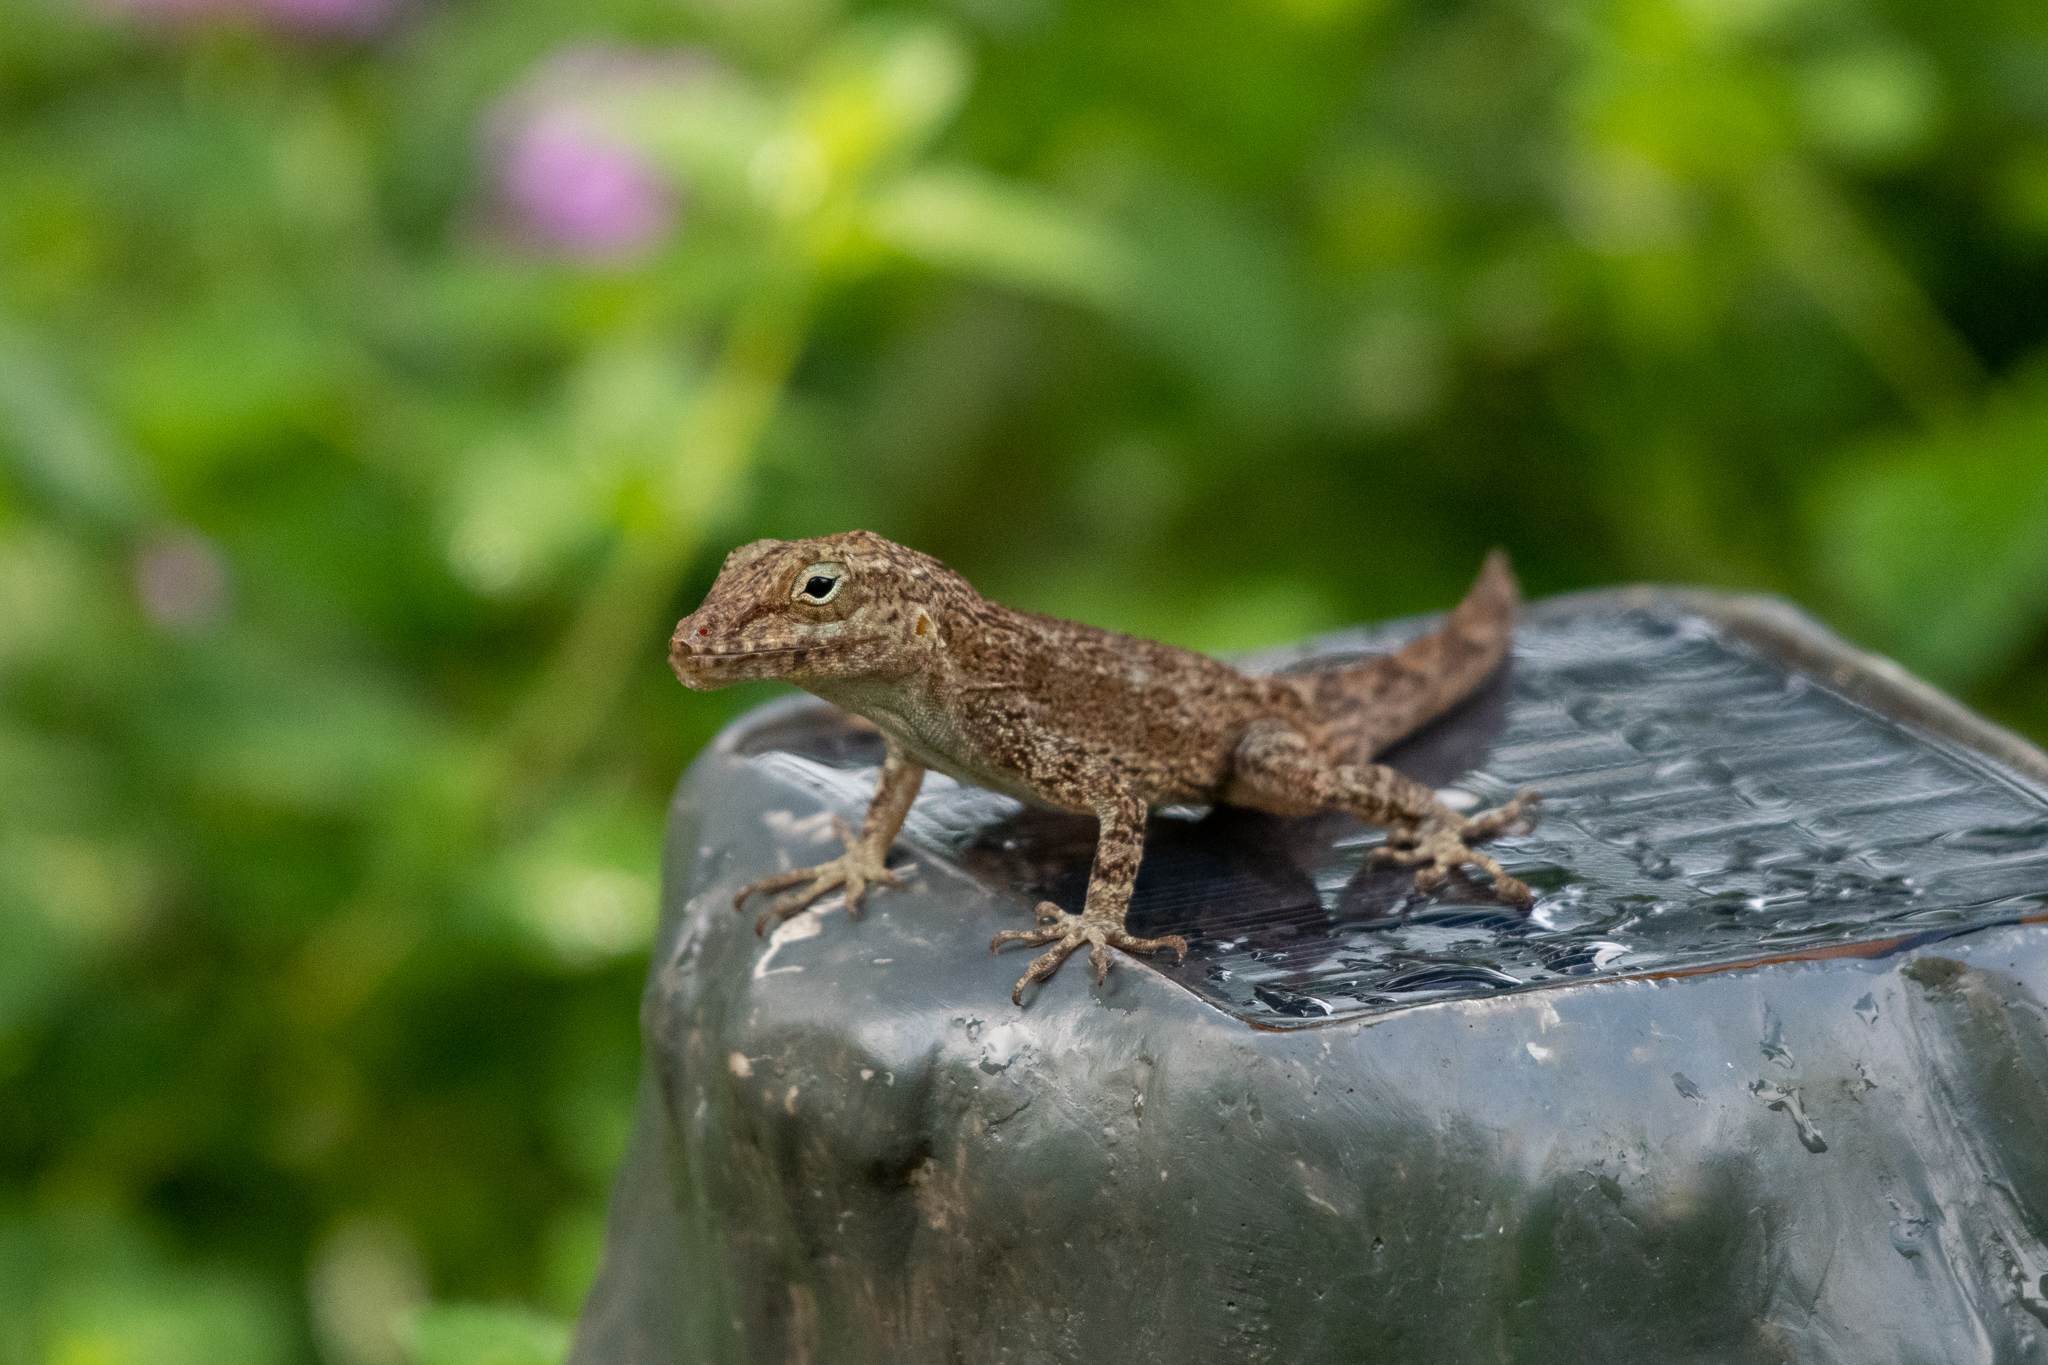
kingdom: Animalia
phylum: Chordata
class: Squamata
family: Dactyloidae
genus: Anolis
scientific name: Anolis cristatellus
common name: Crested anole
